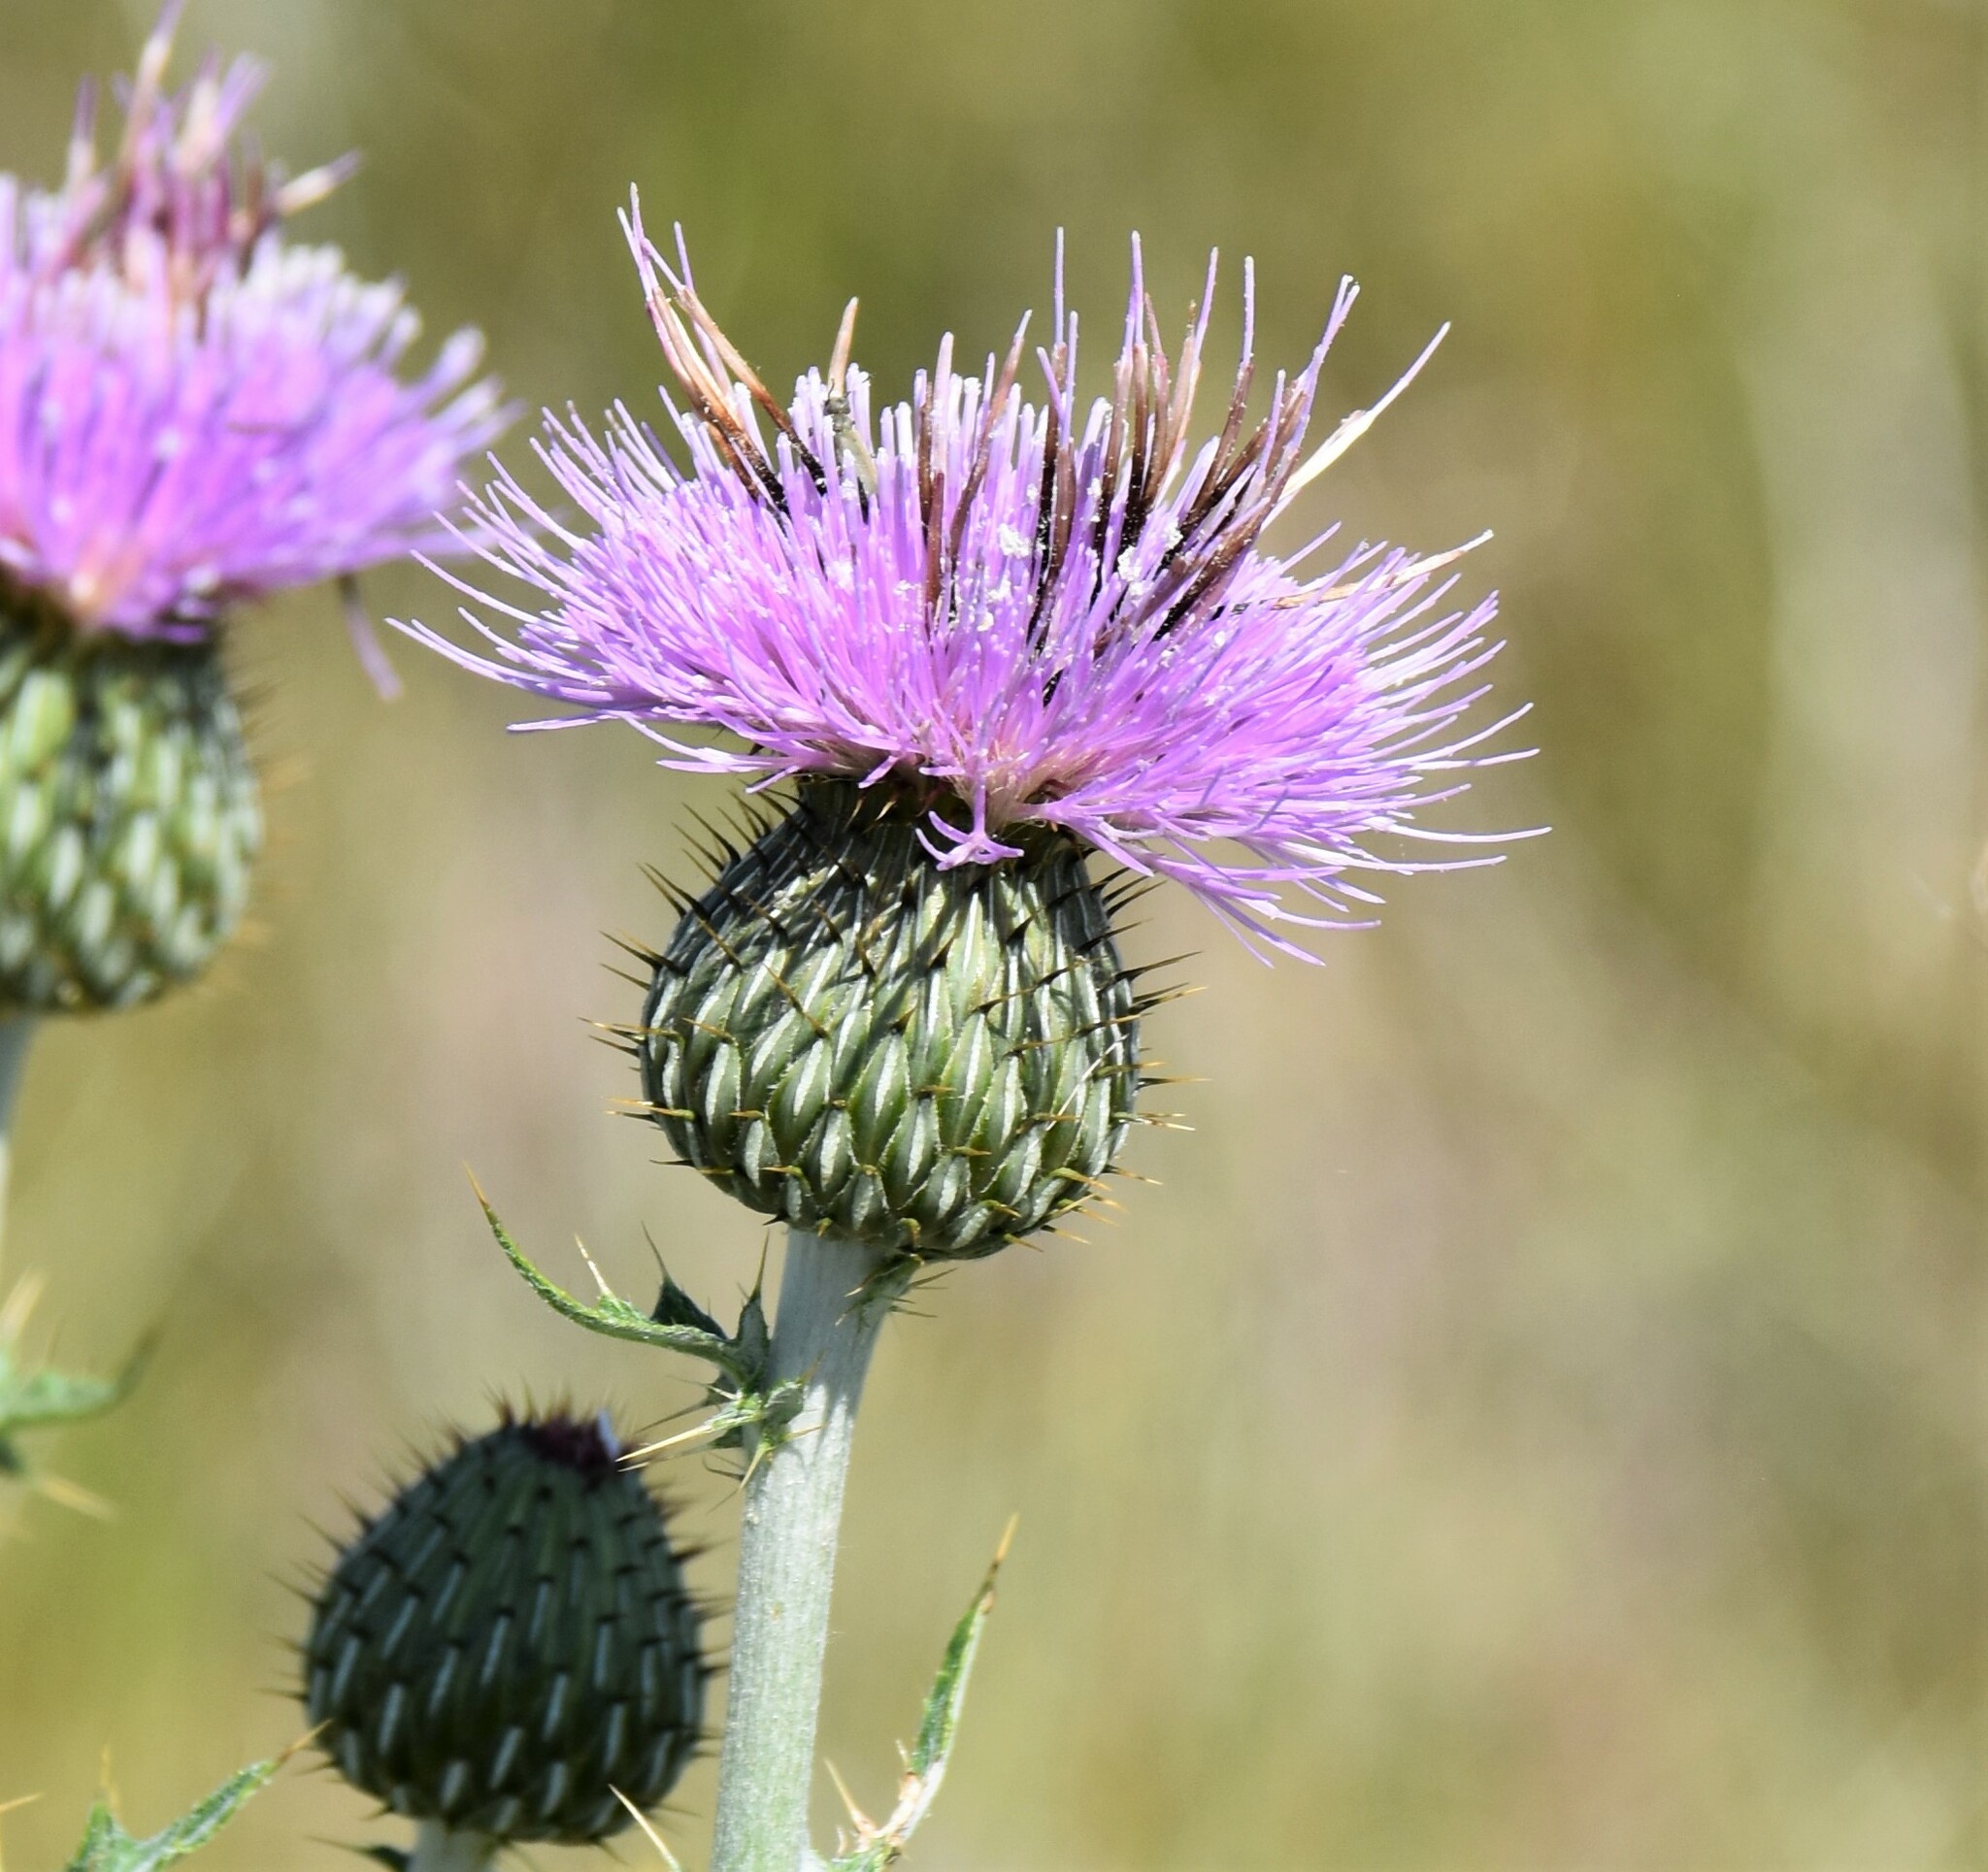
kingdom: Plantae
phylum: Tracheophyta
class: Magnoliopsida
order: Asterales
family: Asteraceae
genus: Cirsium
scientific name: Cirsium undulatum
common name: Pasture thistle
